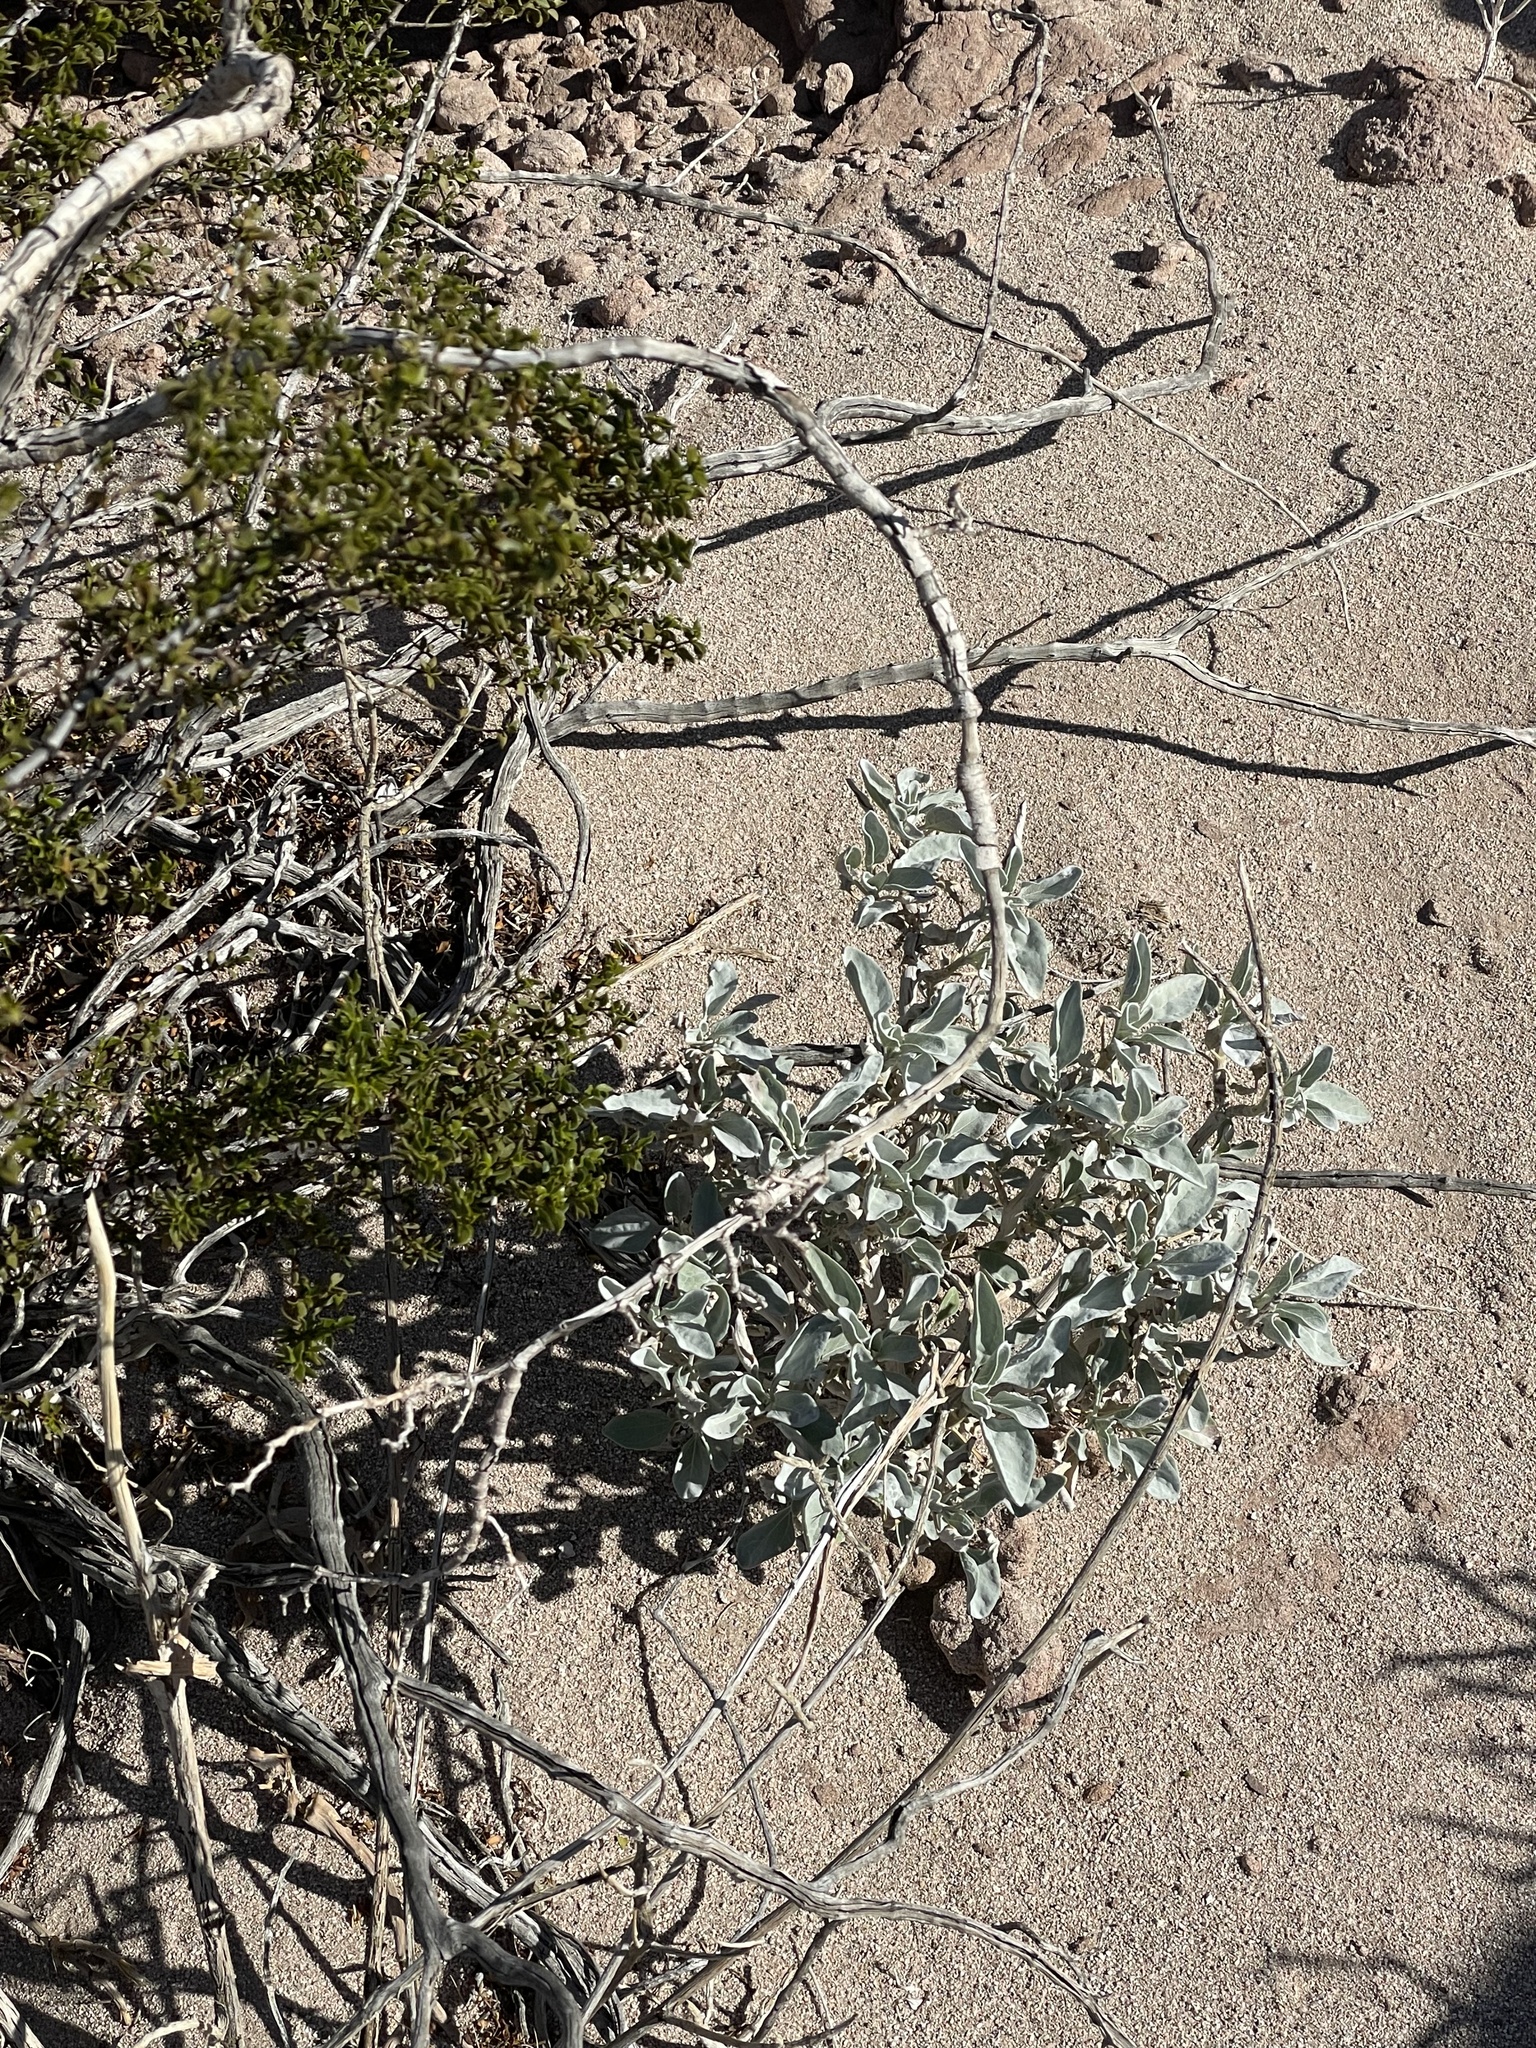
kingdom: Plantae
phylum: Tracheophyta
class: Magnoliopsida
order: Asterales
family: Asteraceae
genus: Encelia
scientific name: Encelia farinosa
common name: Brittlebush
